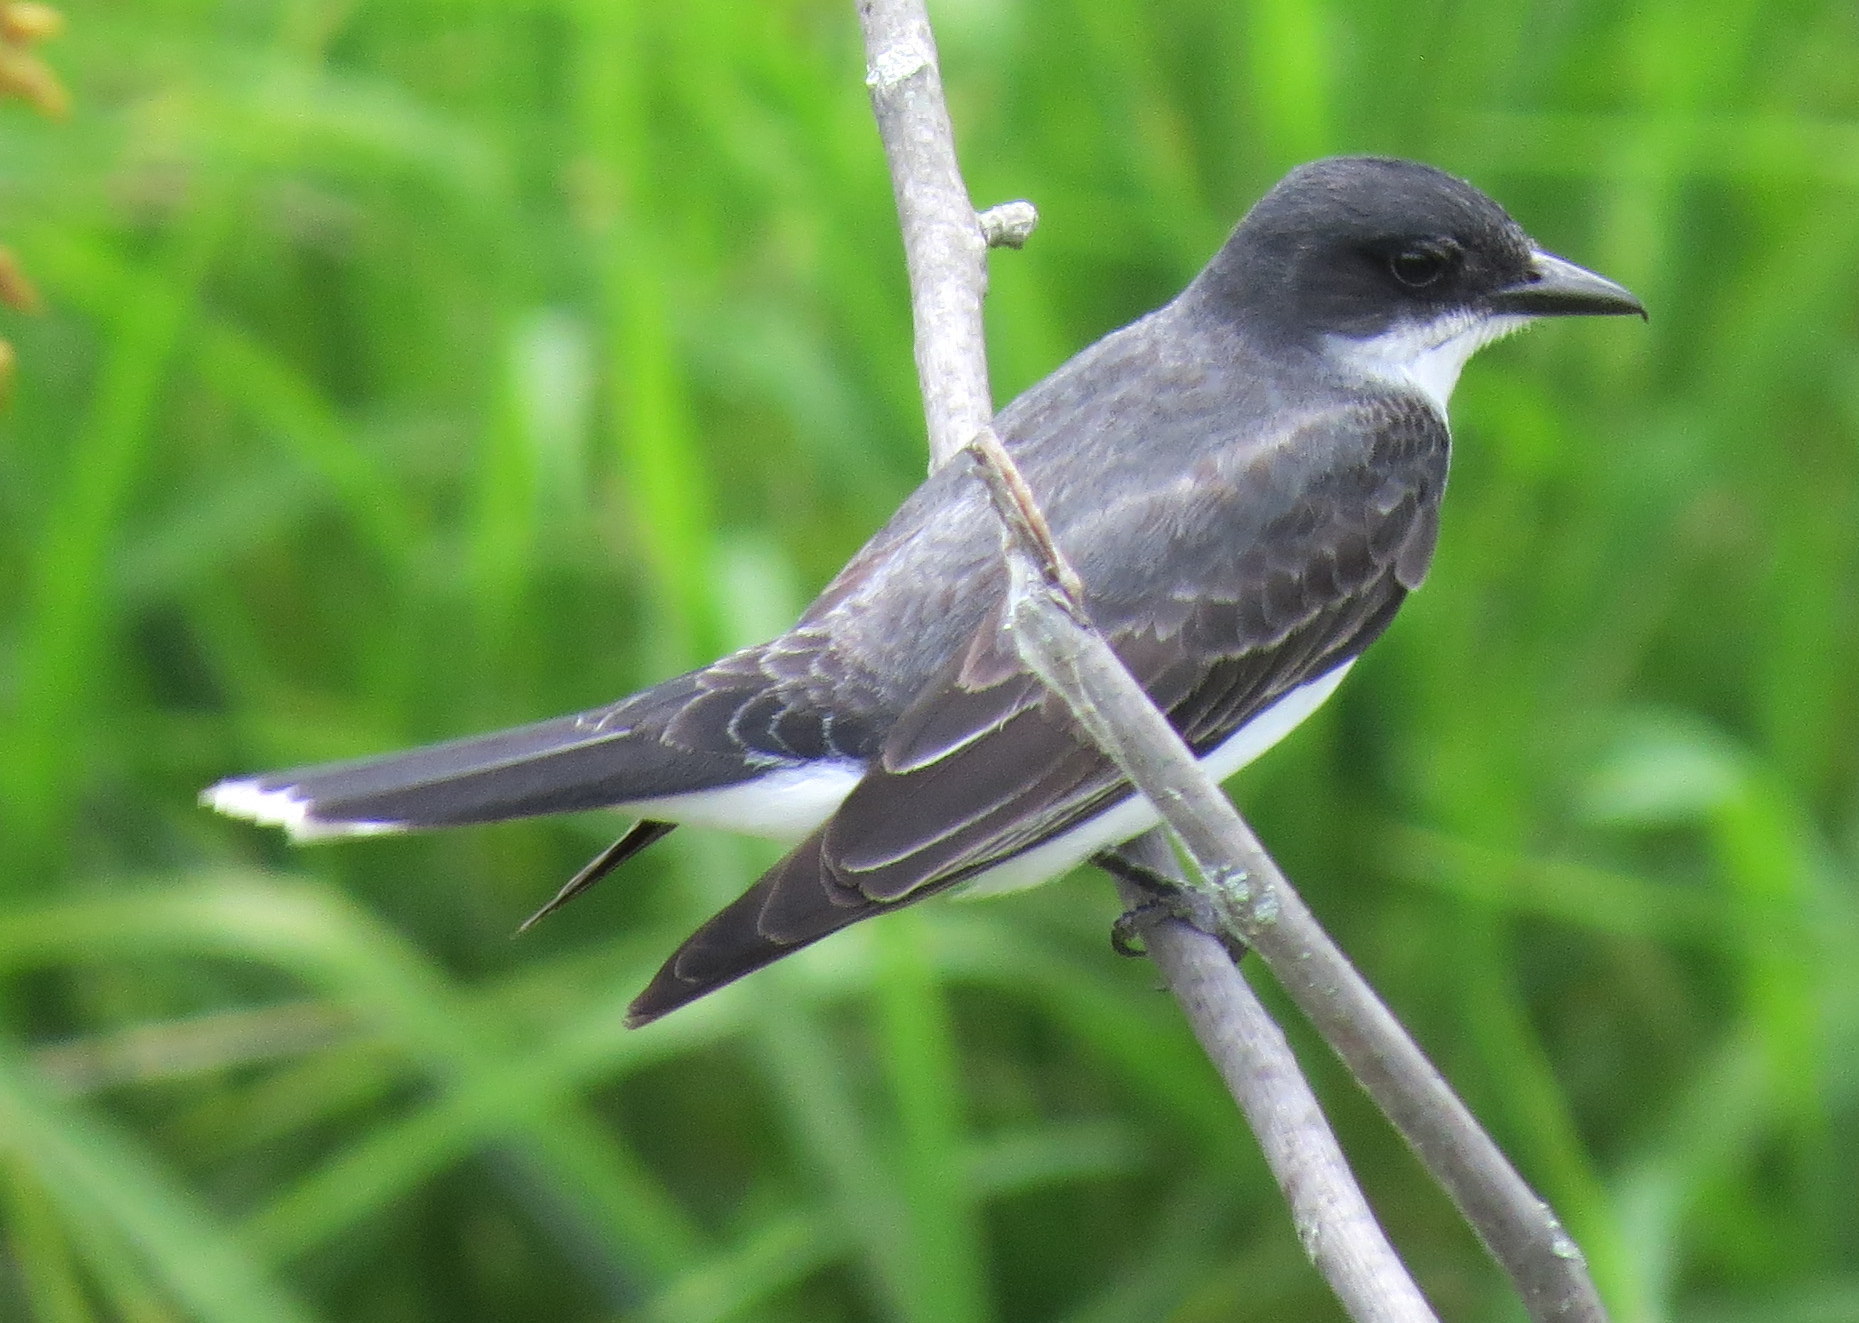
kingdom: Animalia
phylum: Chordata
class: Aves
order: Passeriformes
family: Tyrannidae
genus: Tyrannus
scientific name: Tyrannus tyrannus
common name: Eastern kingbird
